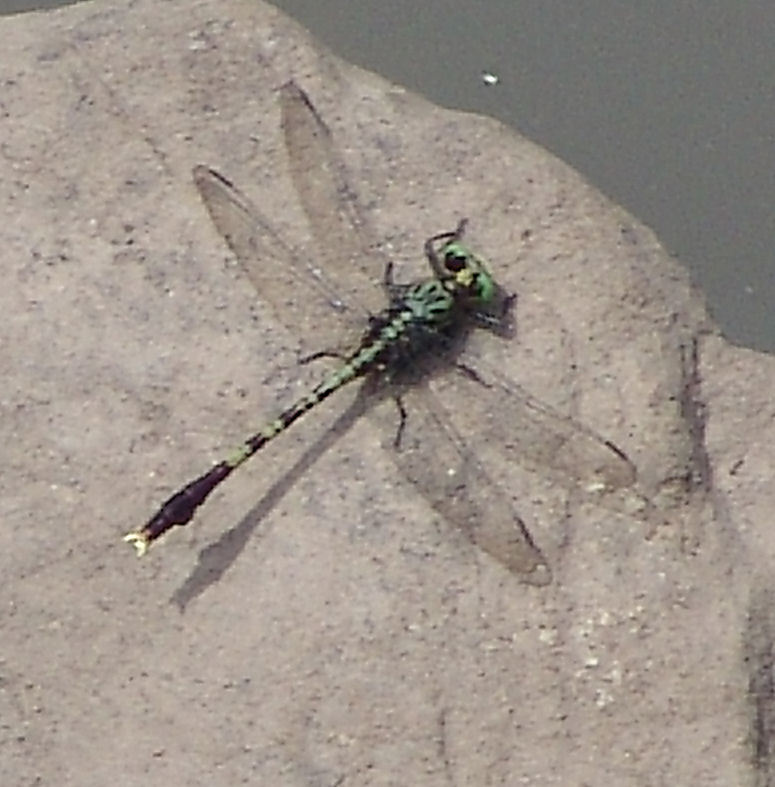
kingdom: Animalia
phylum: Arthropoda
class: Insecta
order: Odonata
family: Gomphidae
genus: Arigomphus
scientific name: Arigomphus maxwelli
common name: Bayou clubtail
